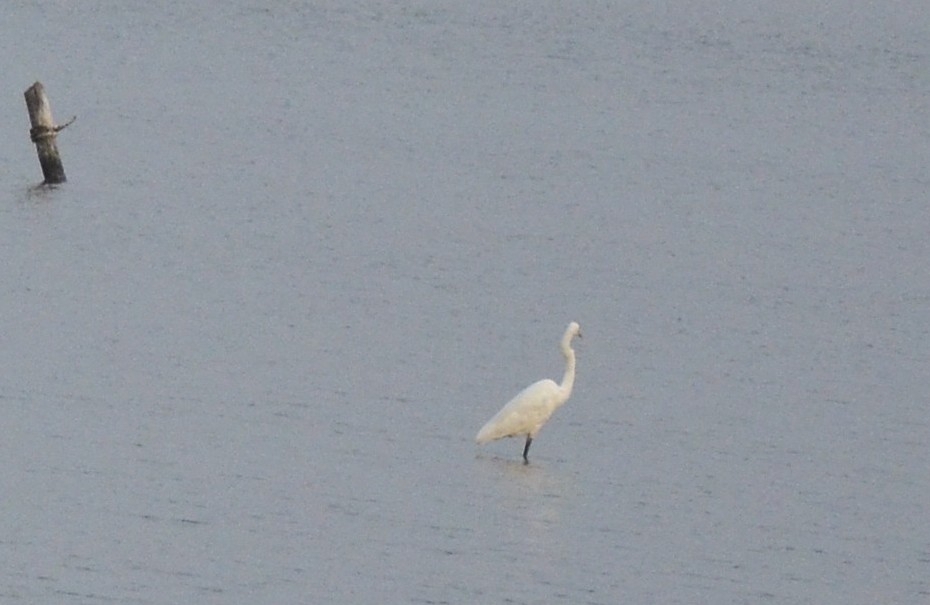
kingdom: Animalia
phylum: Chordata
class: Aves
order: Pelecaniformes
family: Ardeidae
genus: Ardea
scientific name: Ardea alba
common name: Great egret
